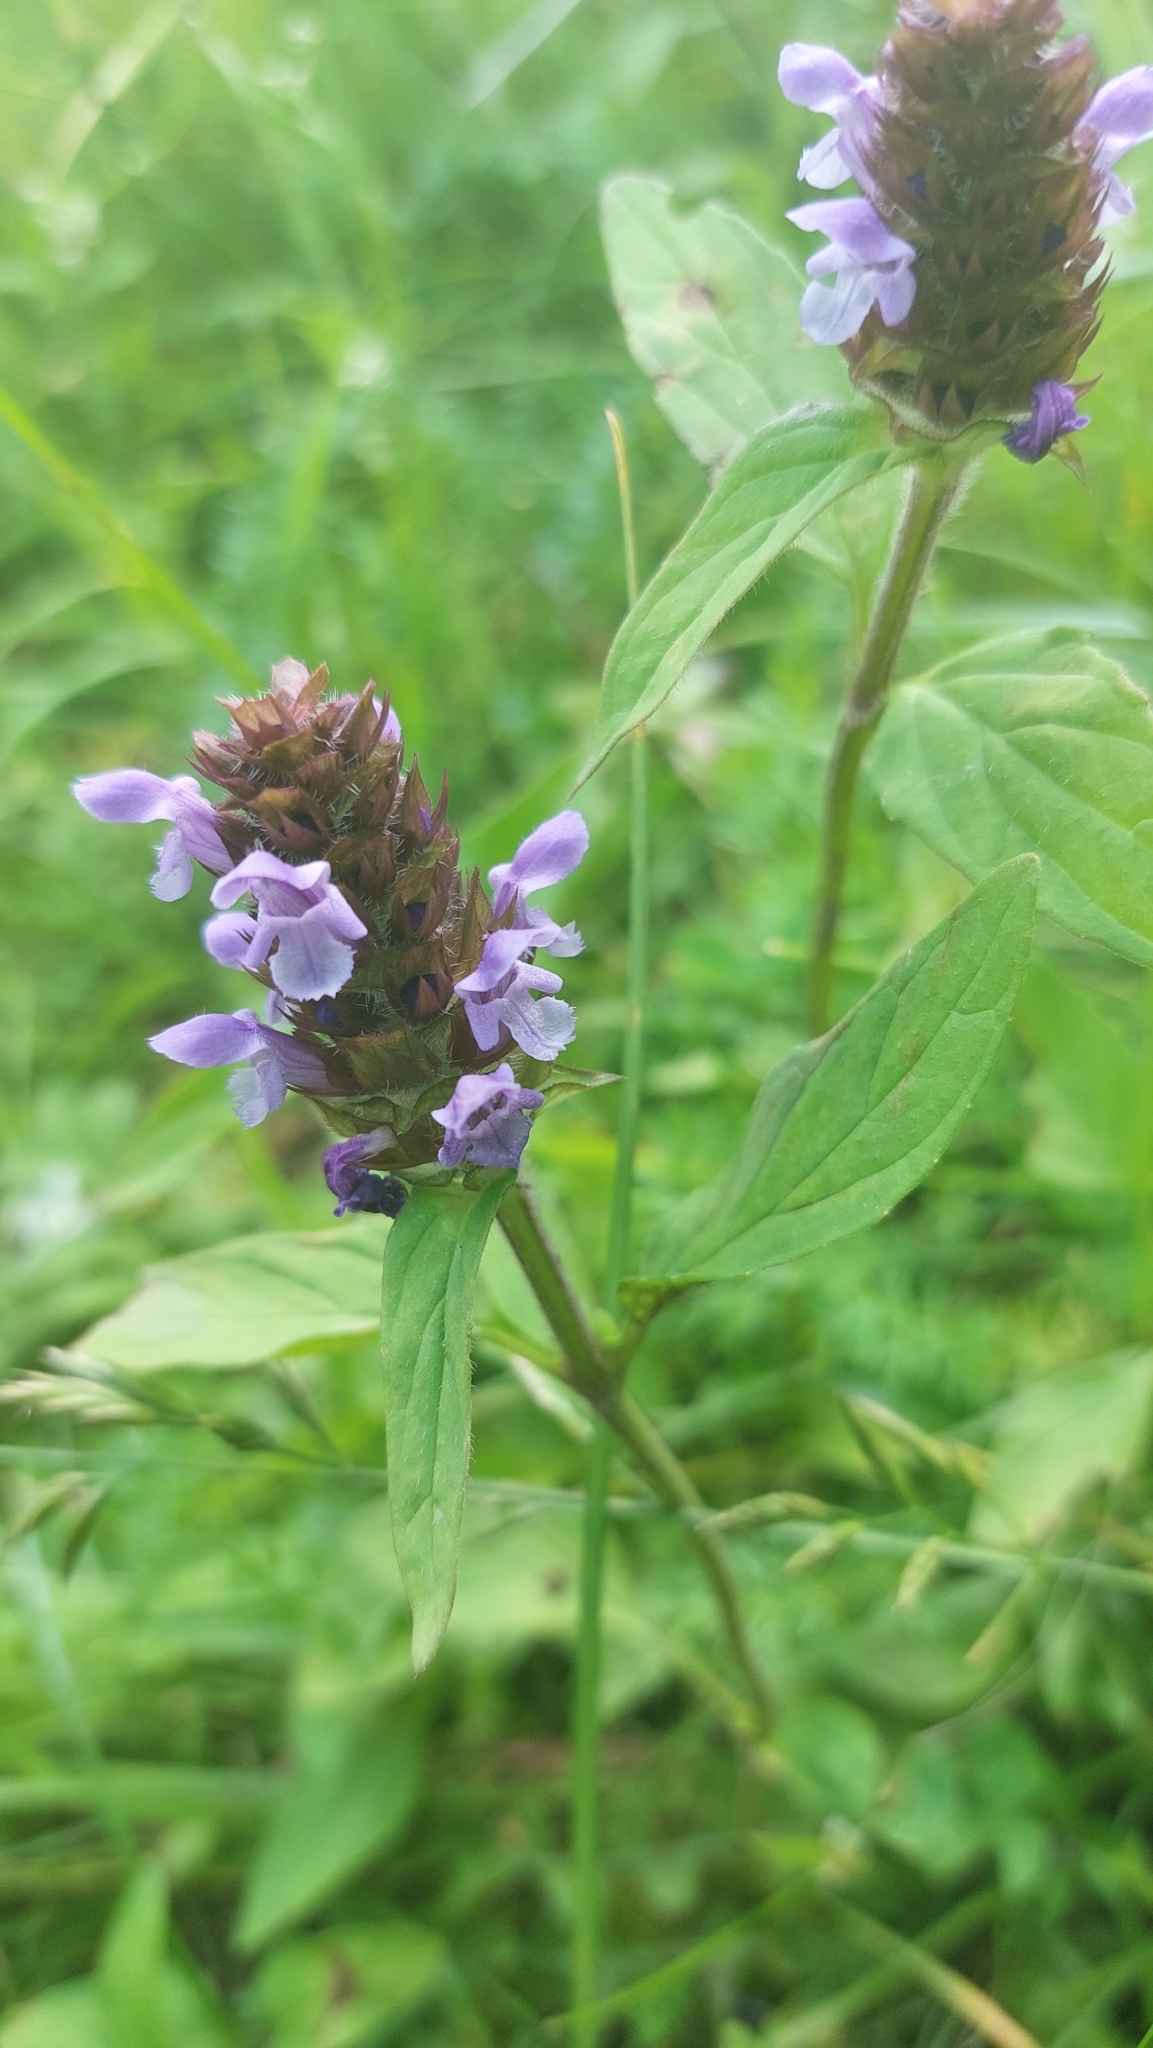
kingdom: Plantae
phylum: Tracheophyta
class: Magnoliopsida
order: Lamiales
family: Lamiaceae
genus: Prunella
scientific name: Prunella vulgaris
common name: Heal-all
